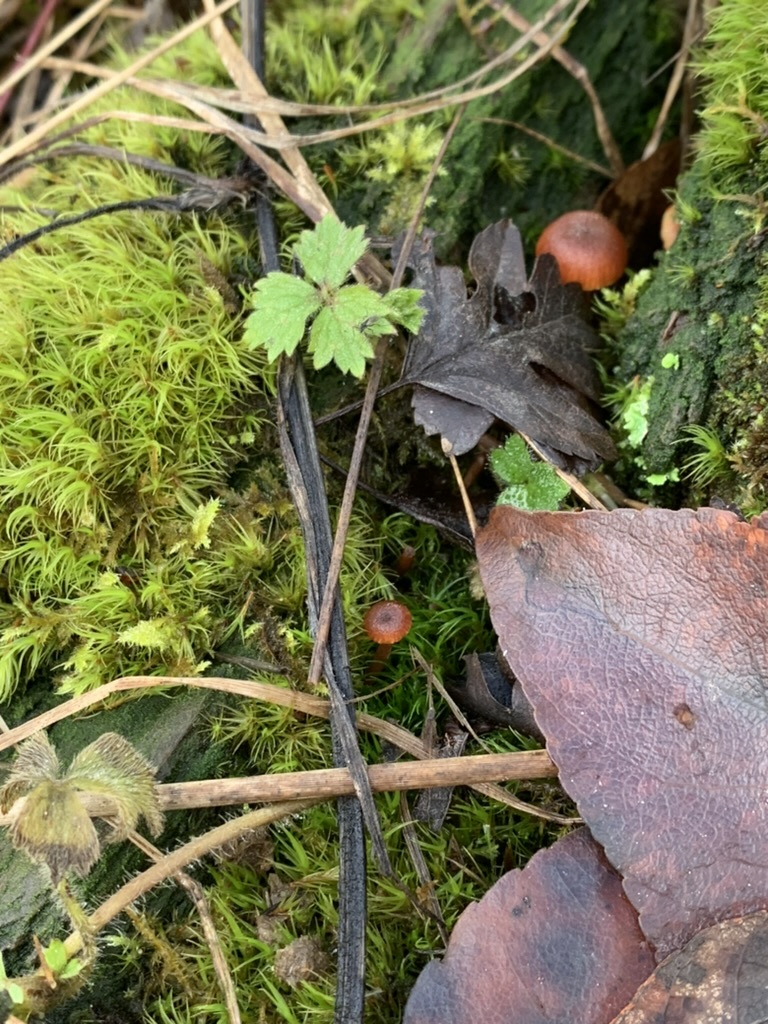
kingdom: Plantae
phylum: Tracheophyta
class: Magnoliopsida
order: Ranunculales
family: Ranunculaceae
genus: Ranunculus
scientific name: Ranunculus repens
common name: Creeping buttercup
